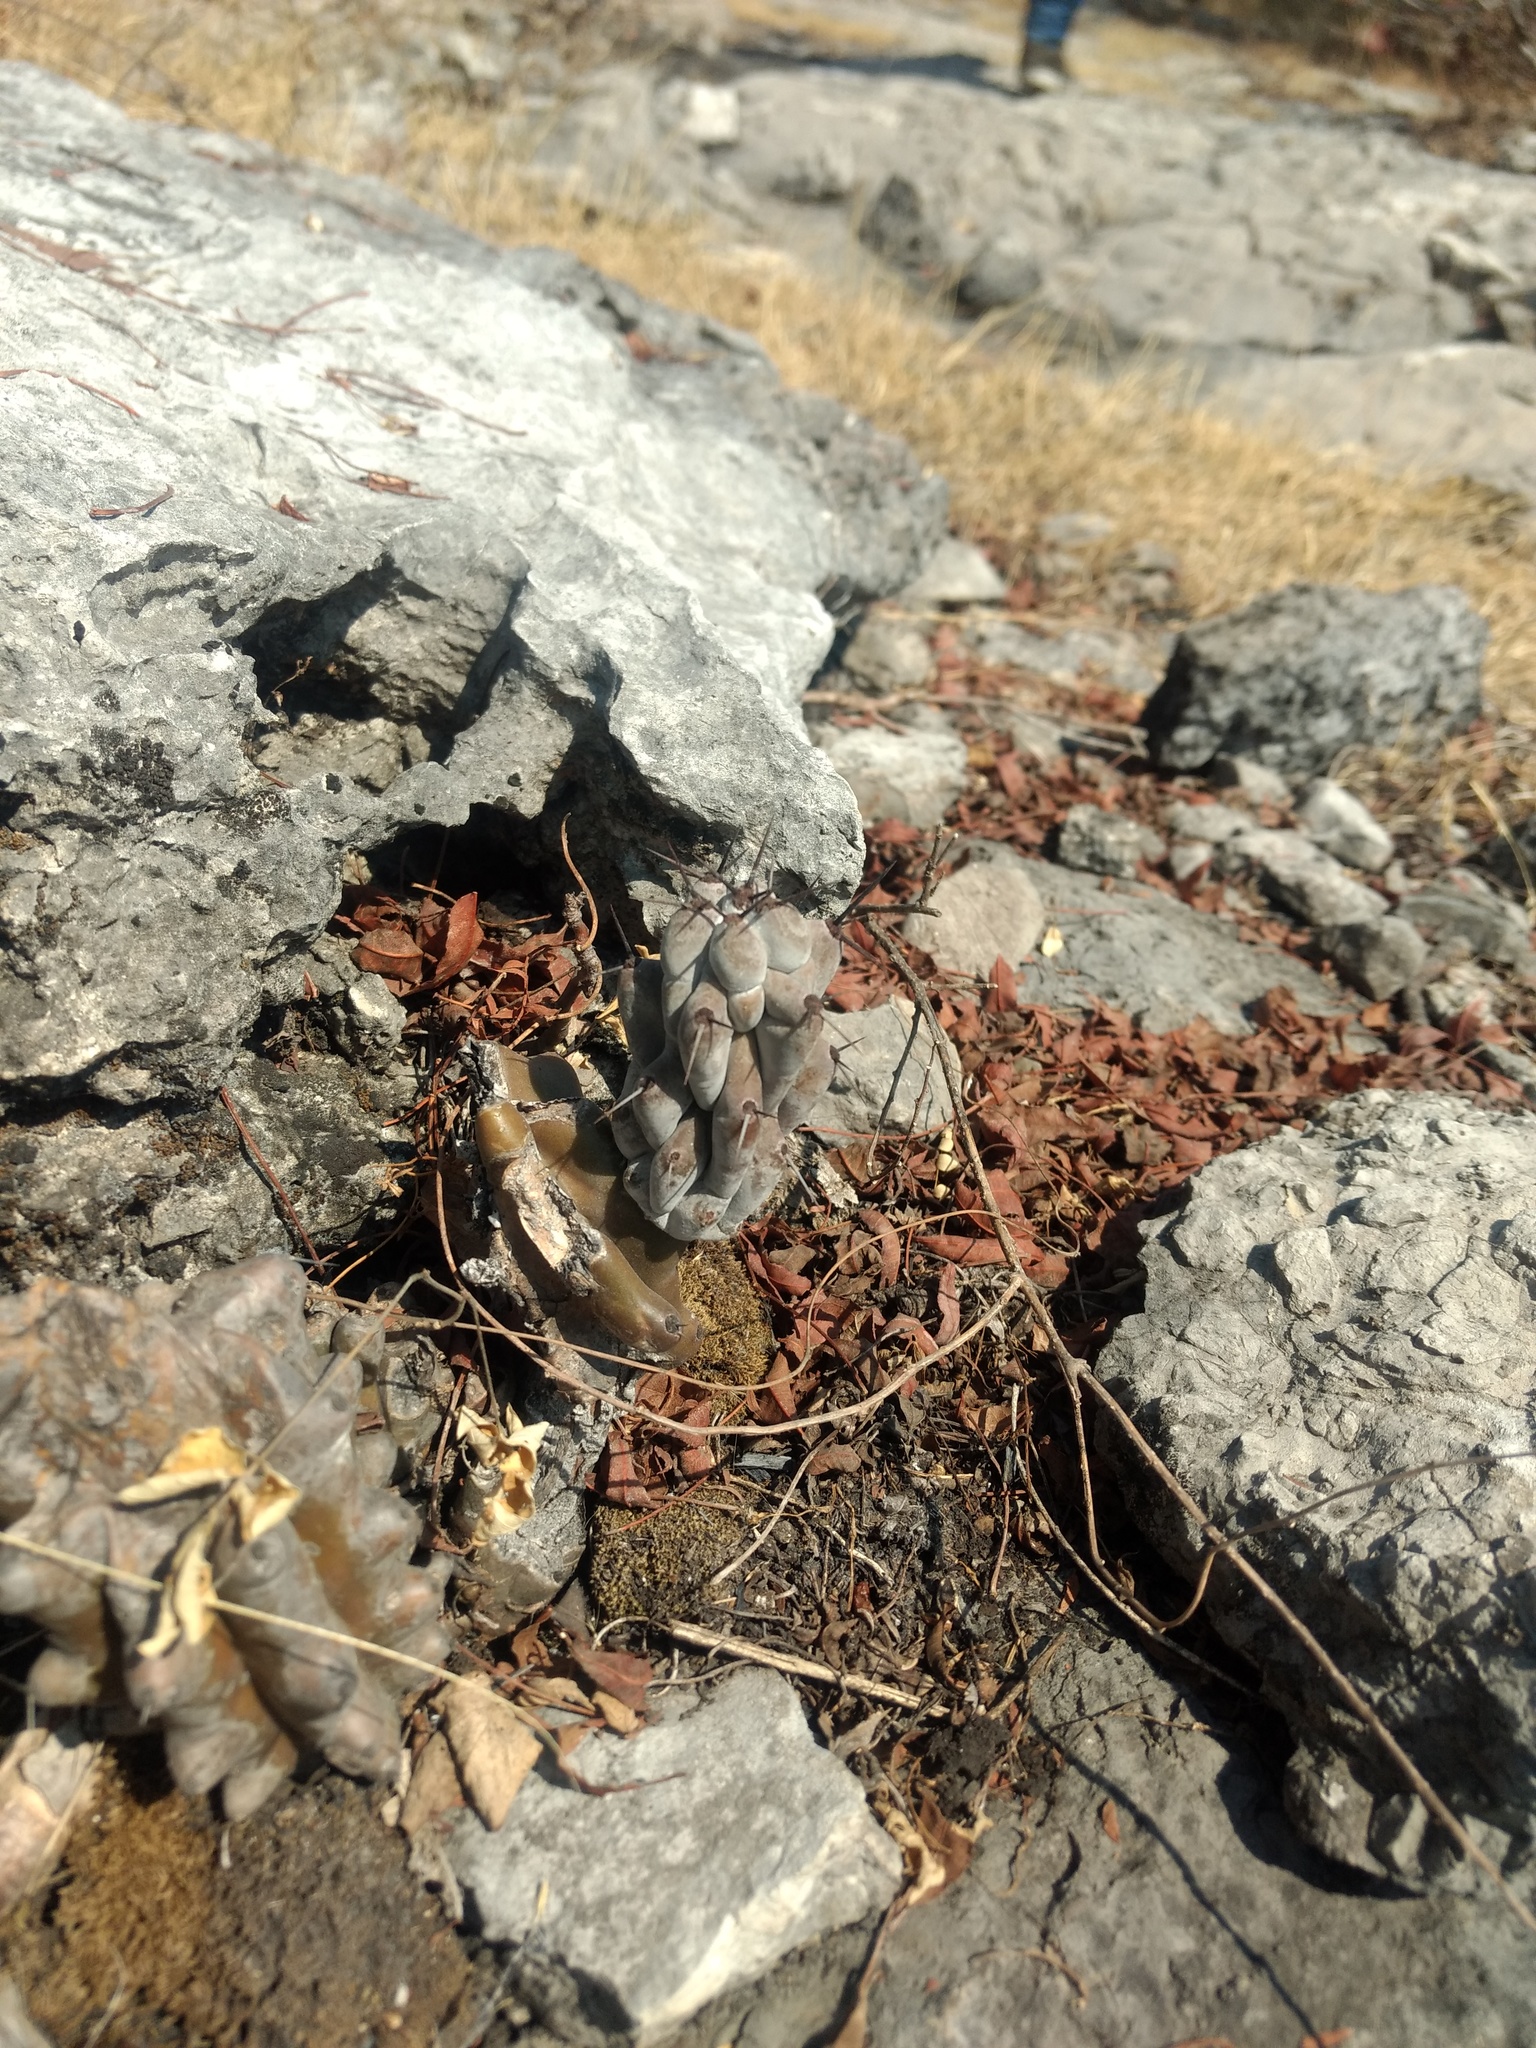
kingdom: Plantae
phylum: Tracheophyta
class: Magnoliopsida
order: Caryophyllales
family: Cactaceae
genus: Stenocereus
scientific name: Stenocereus beneckei
